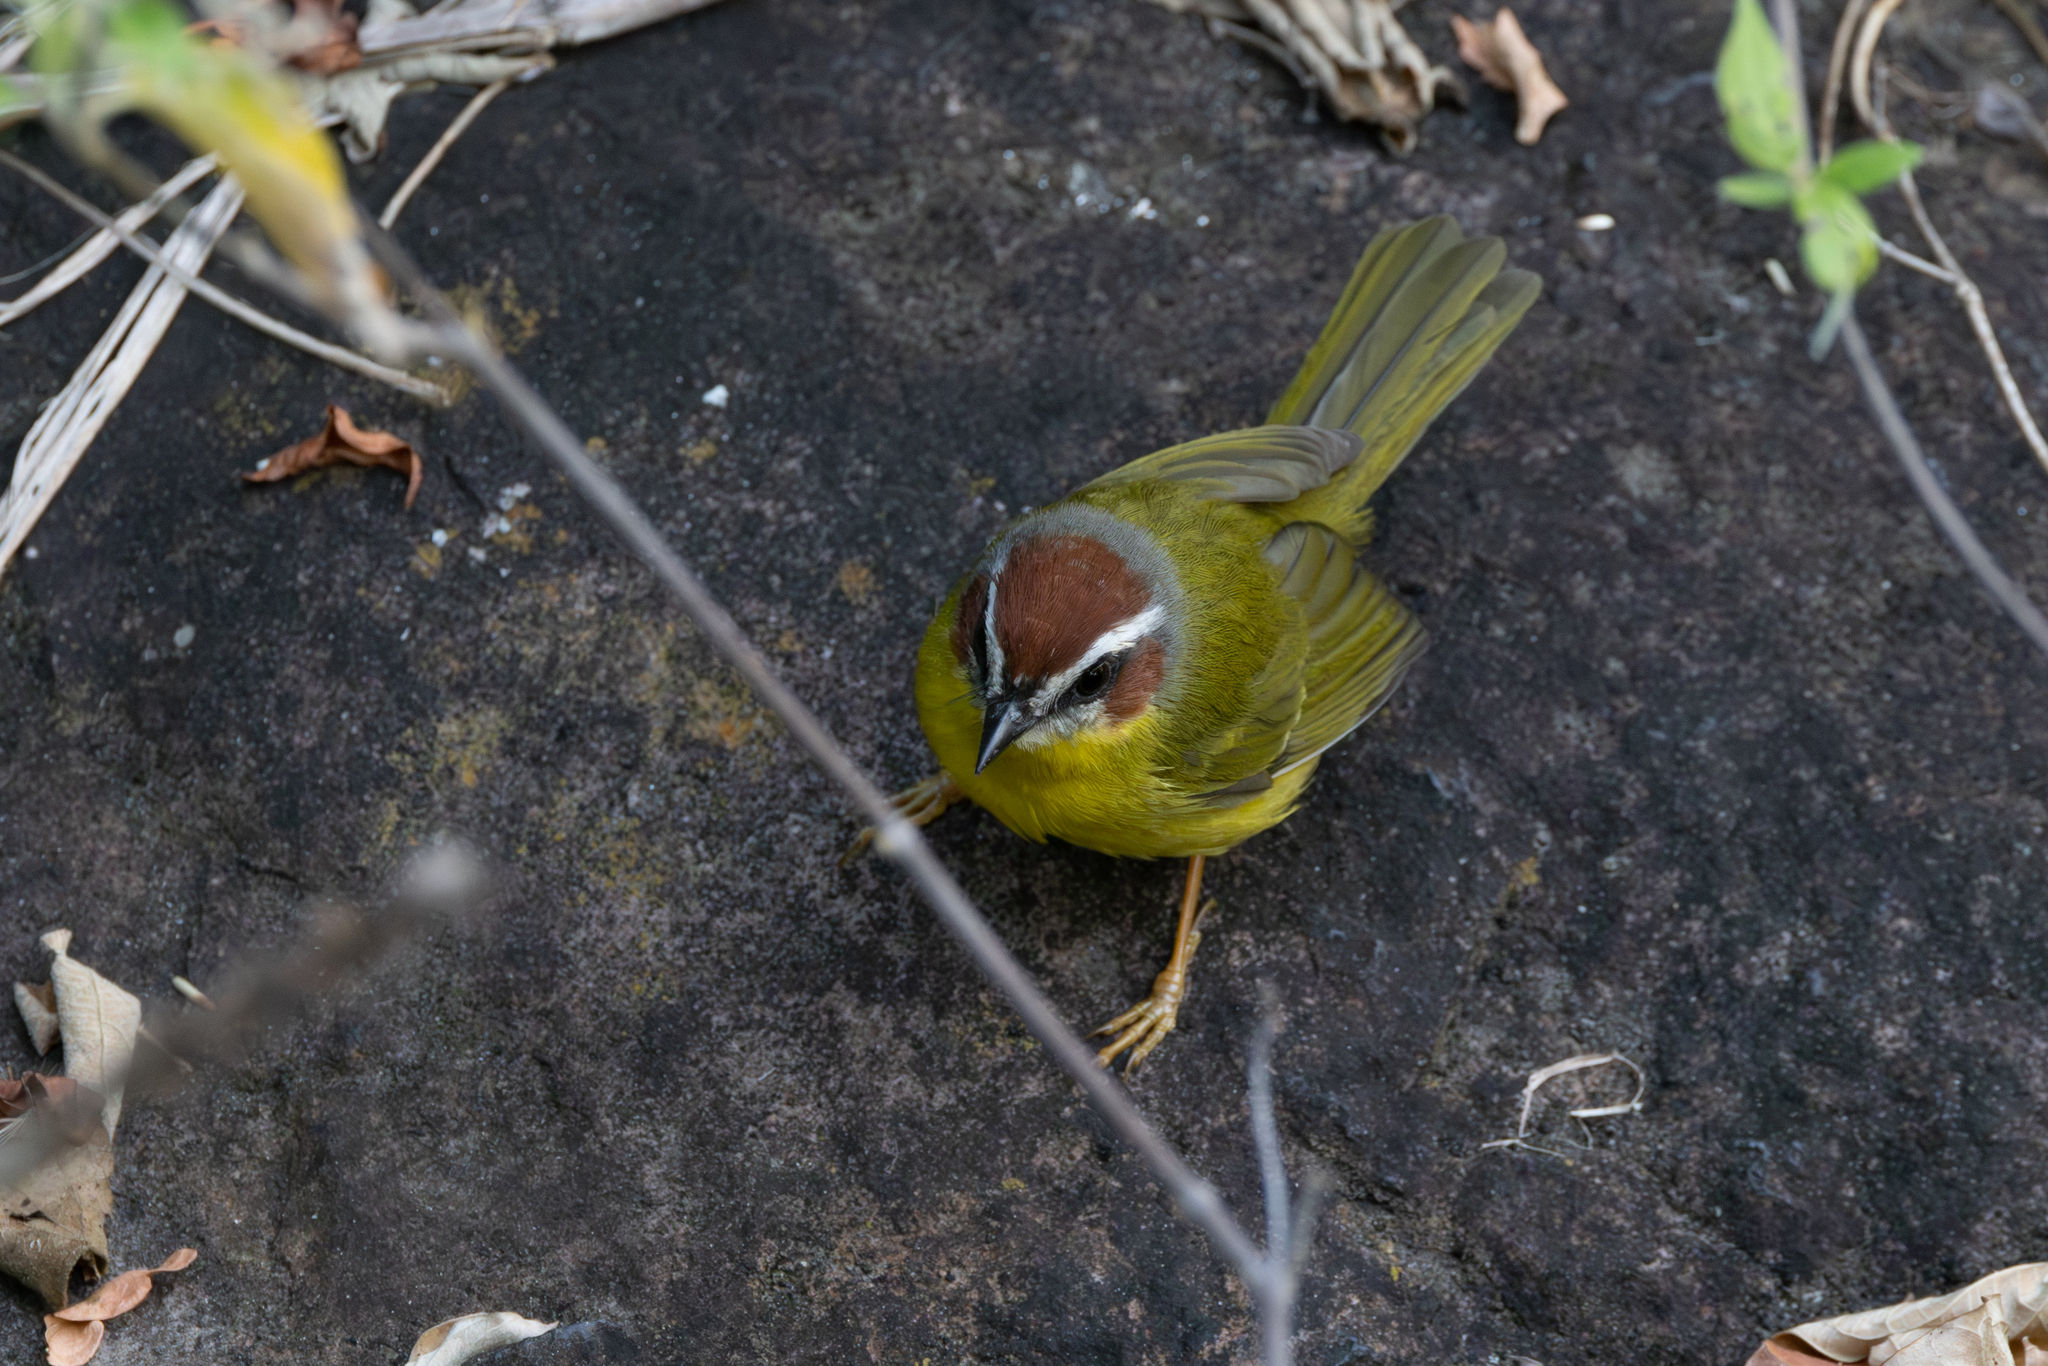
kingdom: Animalia
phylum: Chordata
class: Aves
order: Passeriformes
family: Parulidae
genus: Basileuterus
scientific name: Basileuterus rufifrons
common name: Rufous-capped warbler
